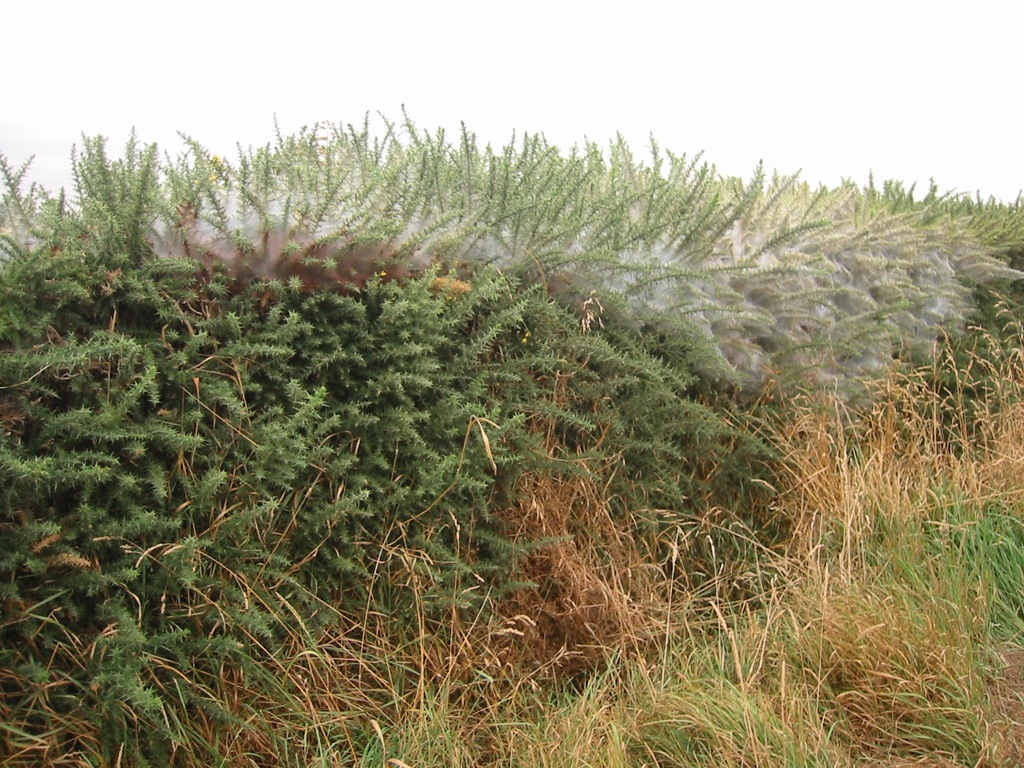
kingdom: Animalia
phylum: Arthropoda
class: Arachnida
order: Trombidiformes
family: Tetranychidae
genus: Tetranychus
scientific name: Tetranychus lintearius
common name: Gorse spider mite
